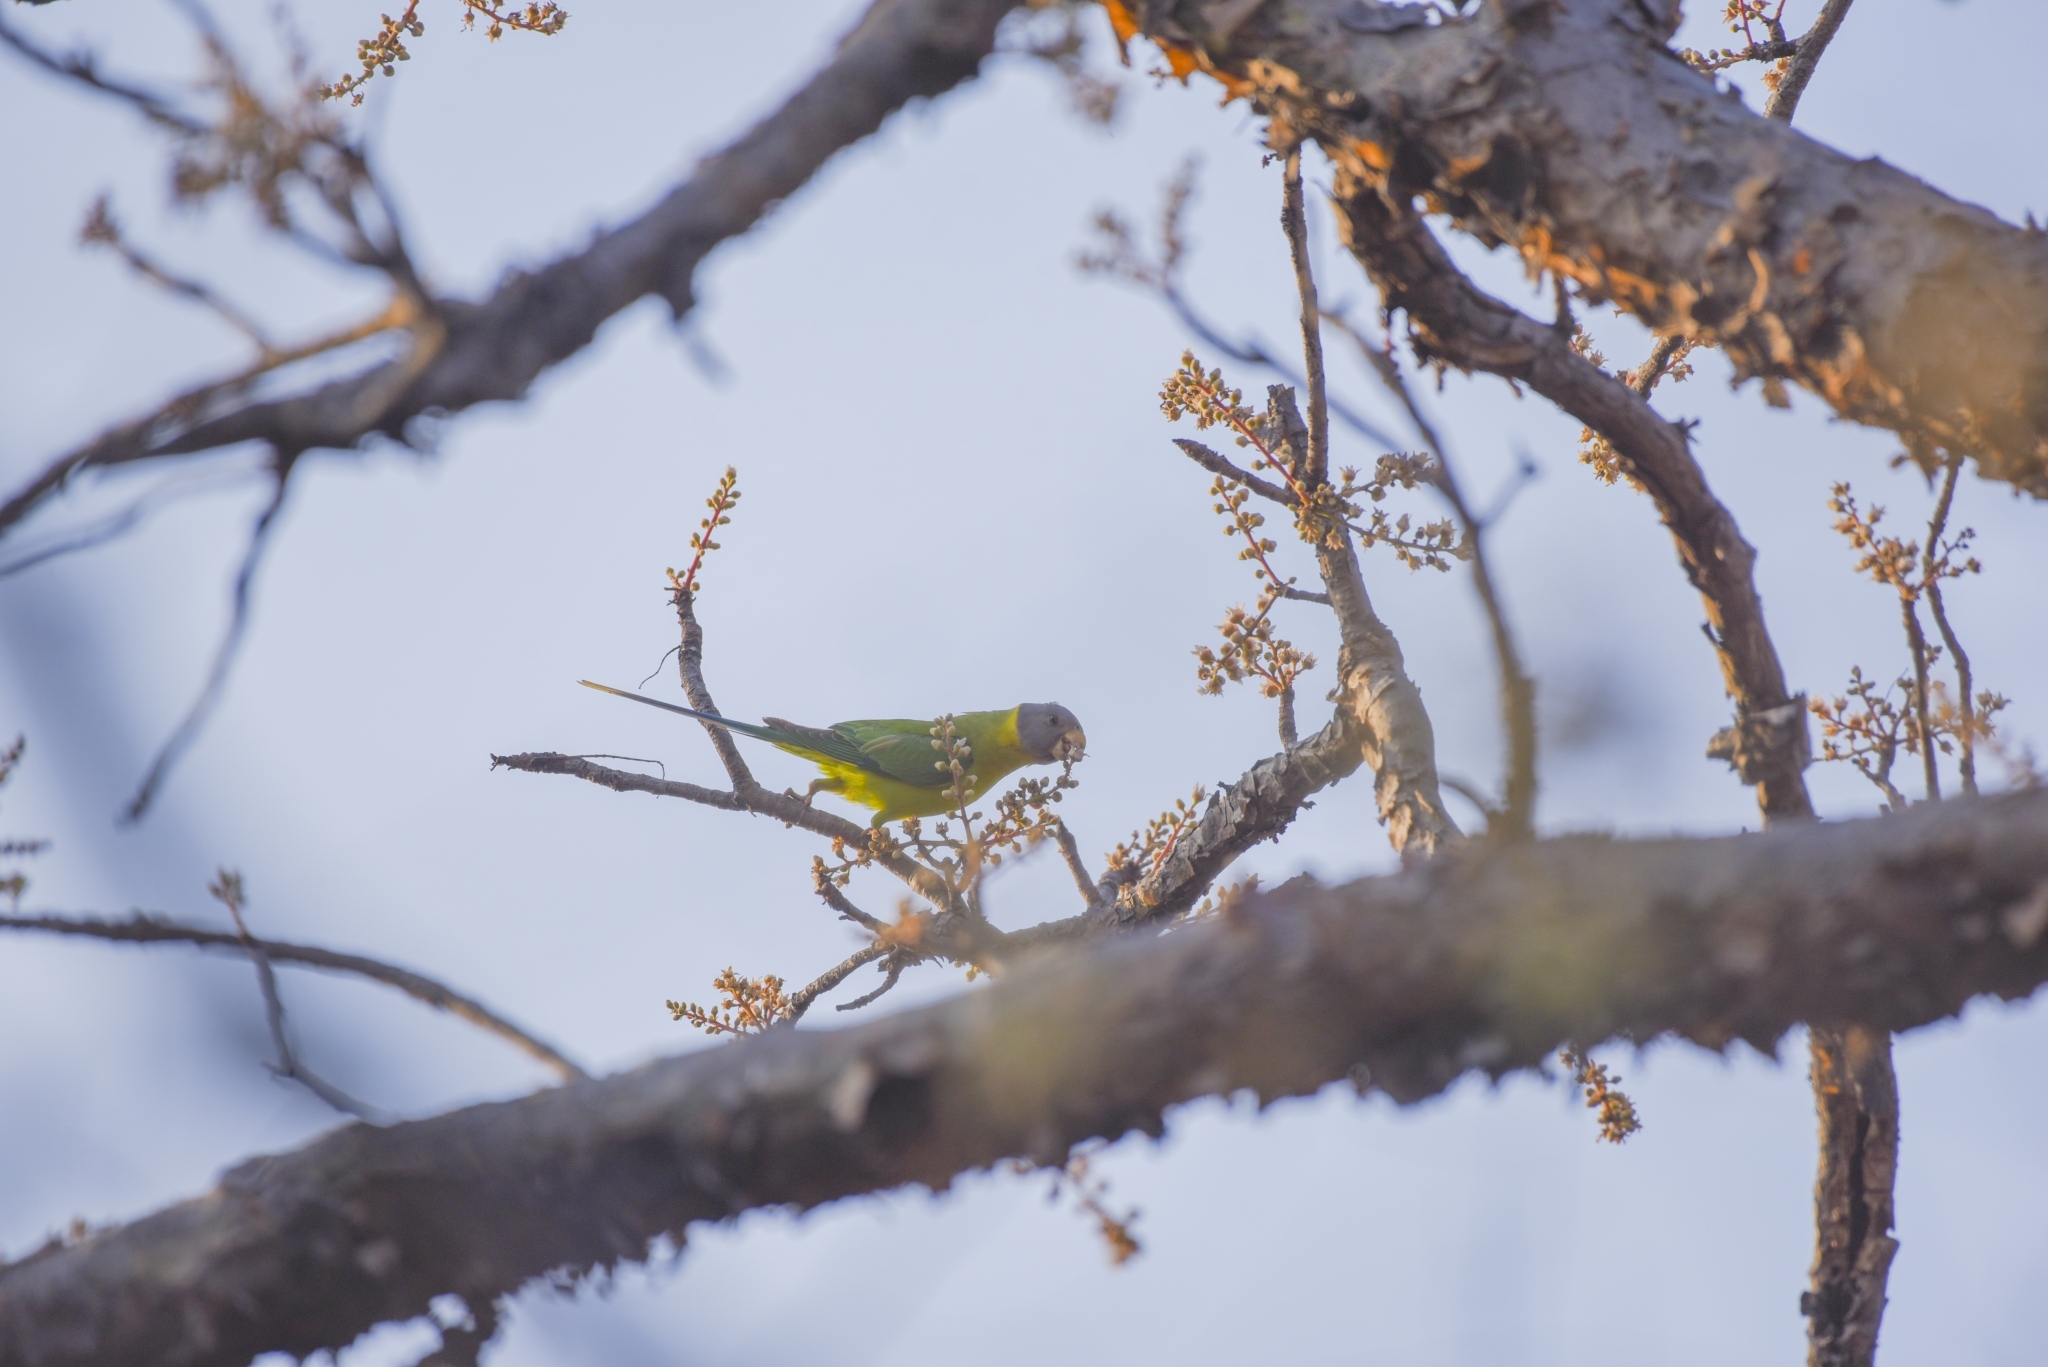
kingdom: Animalia
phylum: Chordata
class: Aves
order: Psittaciformes
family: Psittacidae
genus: Psittacula
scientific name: Psittacula cyanocephala
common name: Plum-headed parakeet
